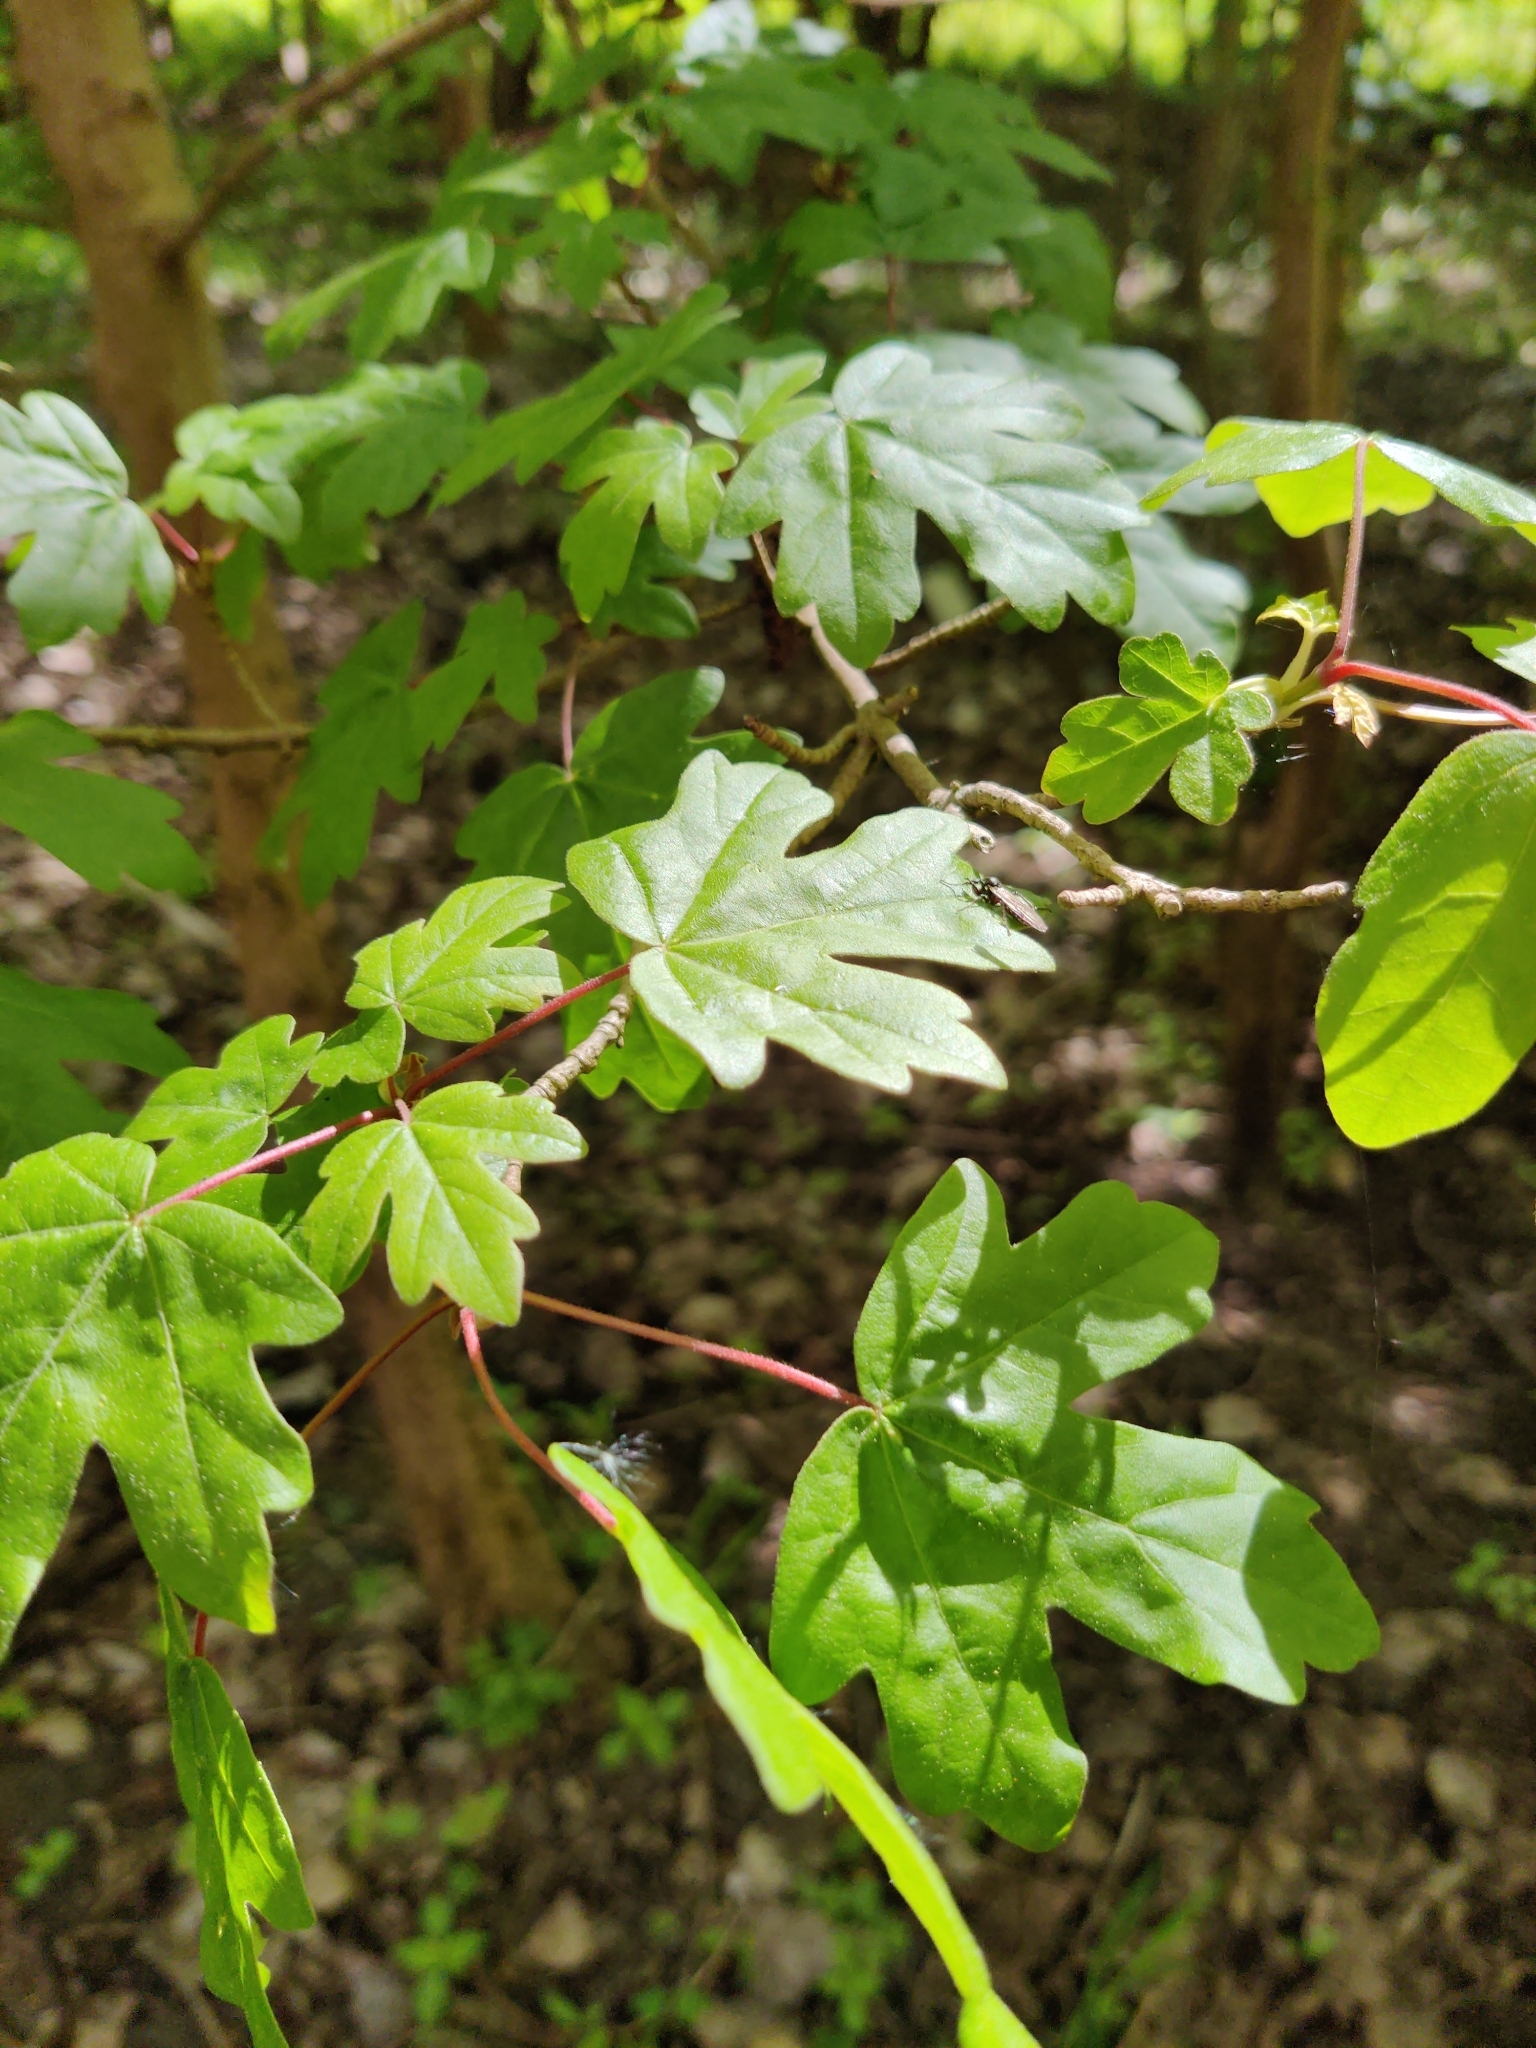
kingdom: Plantae
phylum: Tracheophyta
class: Magnoliopsida
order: Sapindales
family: Sapindaceae
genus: Acer
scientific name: Acer campestre
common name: Field maple
